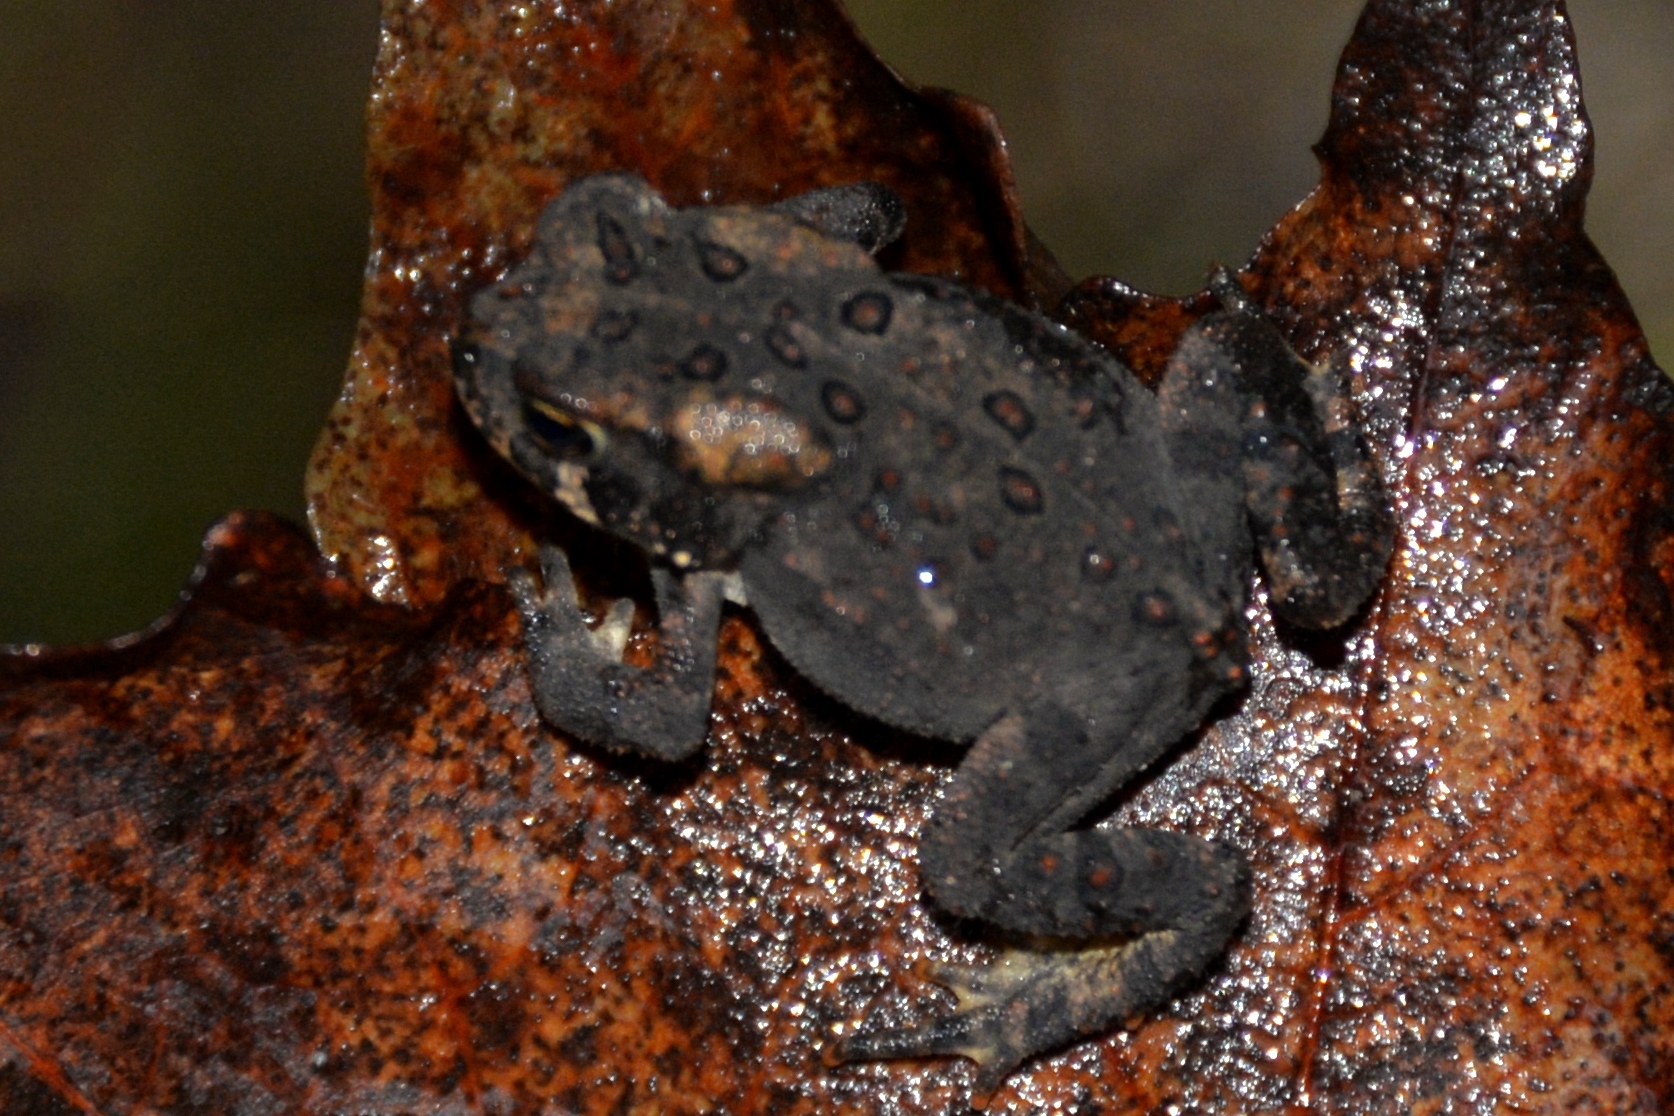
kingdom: Animalia
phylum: Chordata
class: Amphibia
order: Anura
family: Bufonidae
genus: Anaxyrus
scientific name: Anaxyrus americanus
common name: American toad
